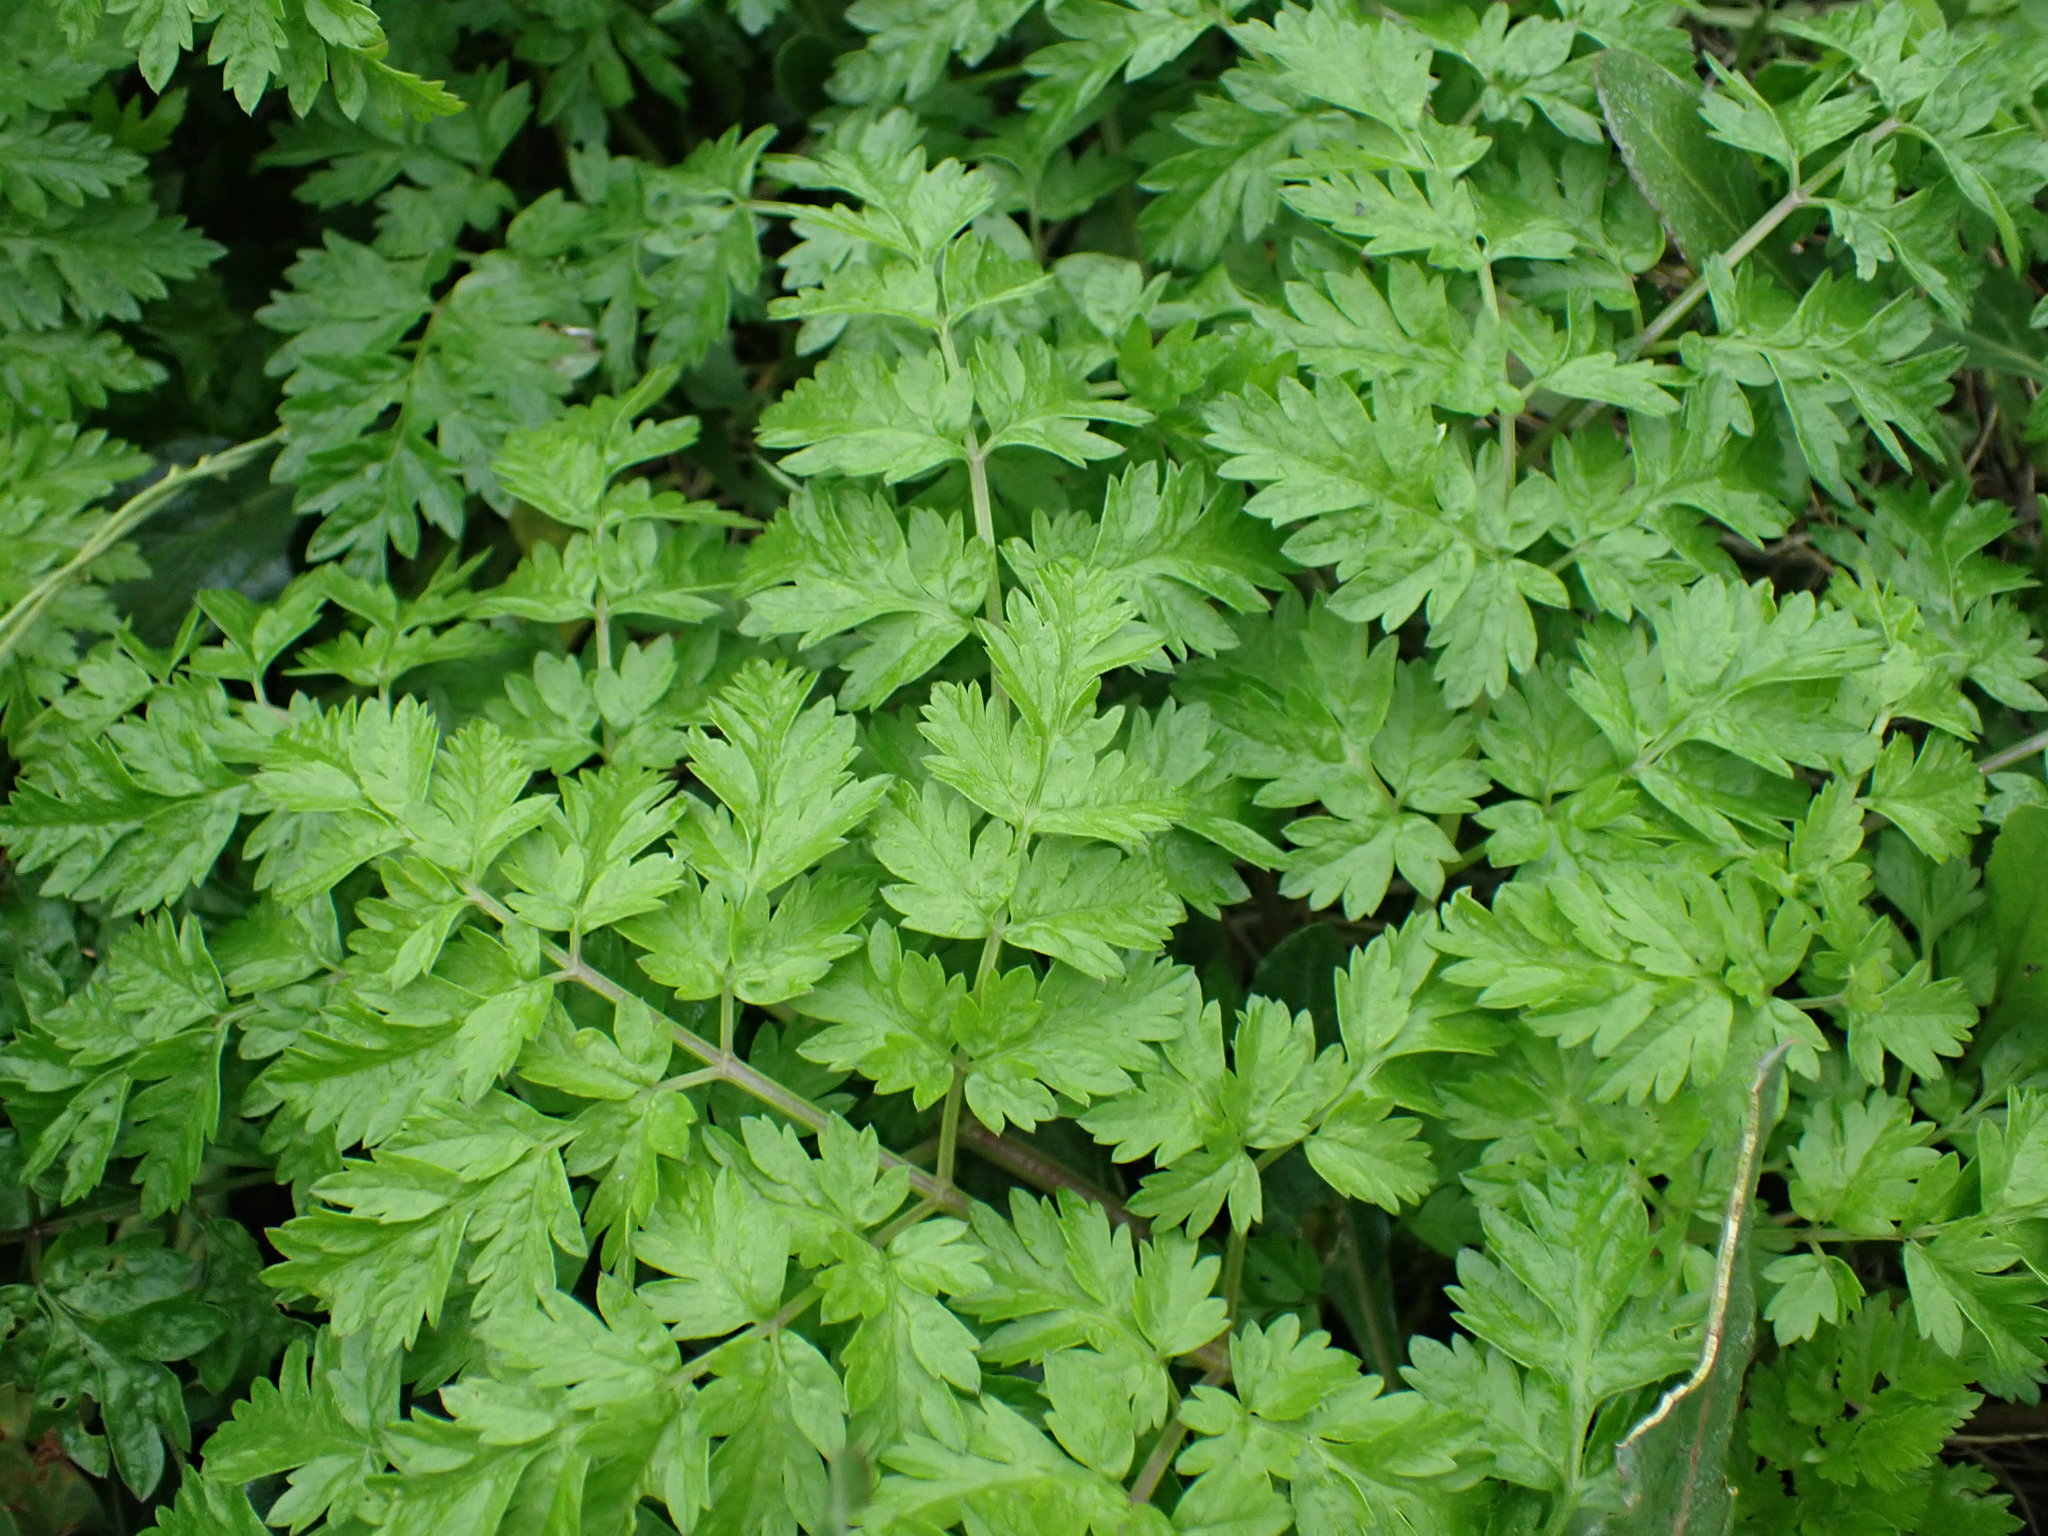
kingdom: Plantae
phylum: Tracheophyta
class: Magnoliopsida
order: Apiales
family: Apiaceae
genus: Anthriscus
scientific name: Anthriscus sylvestris
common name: Cow parsley
